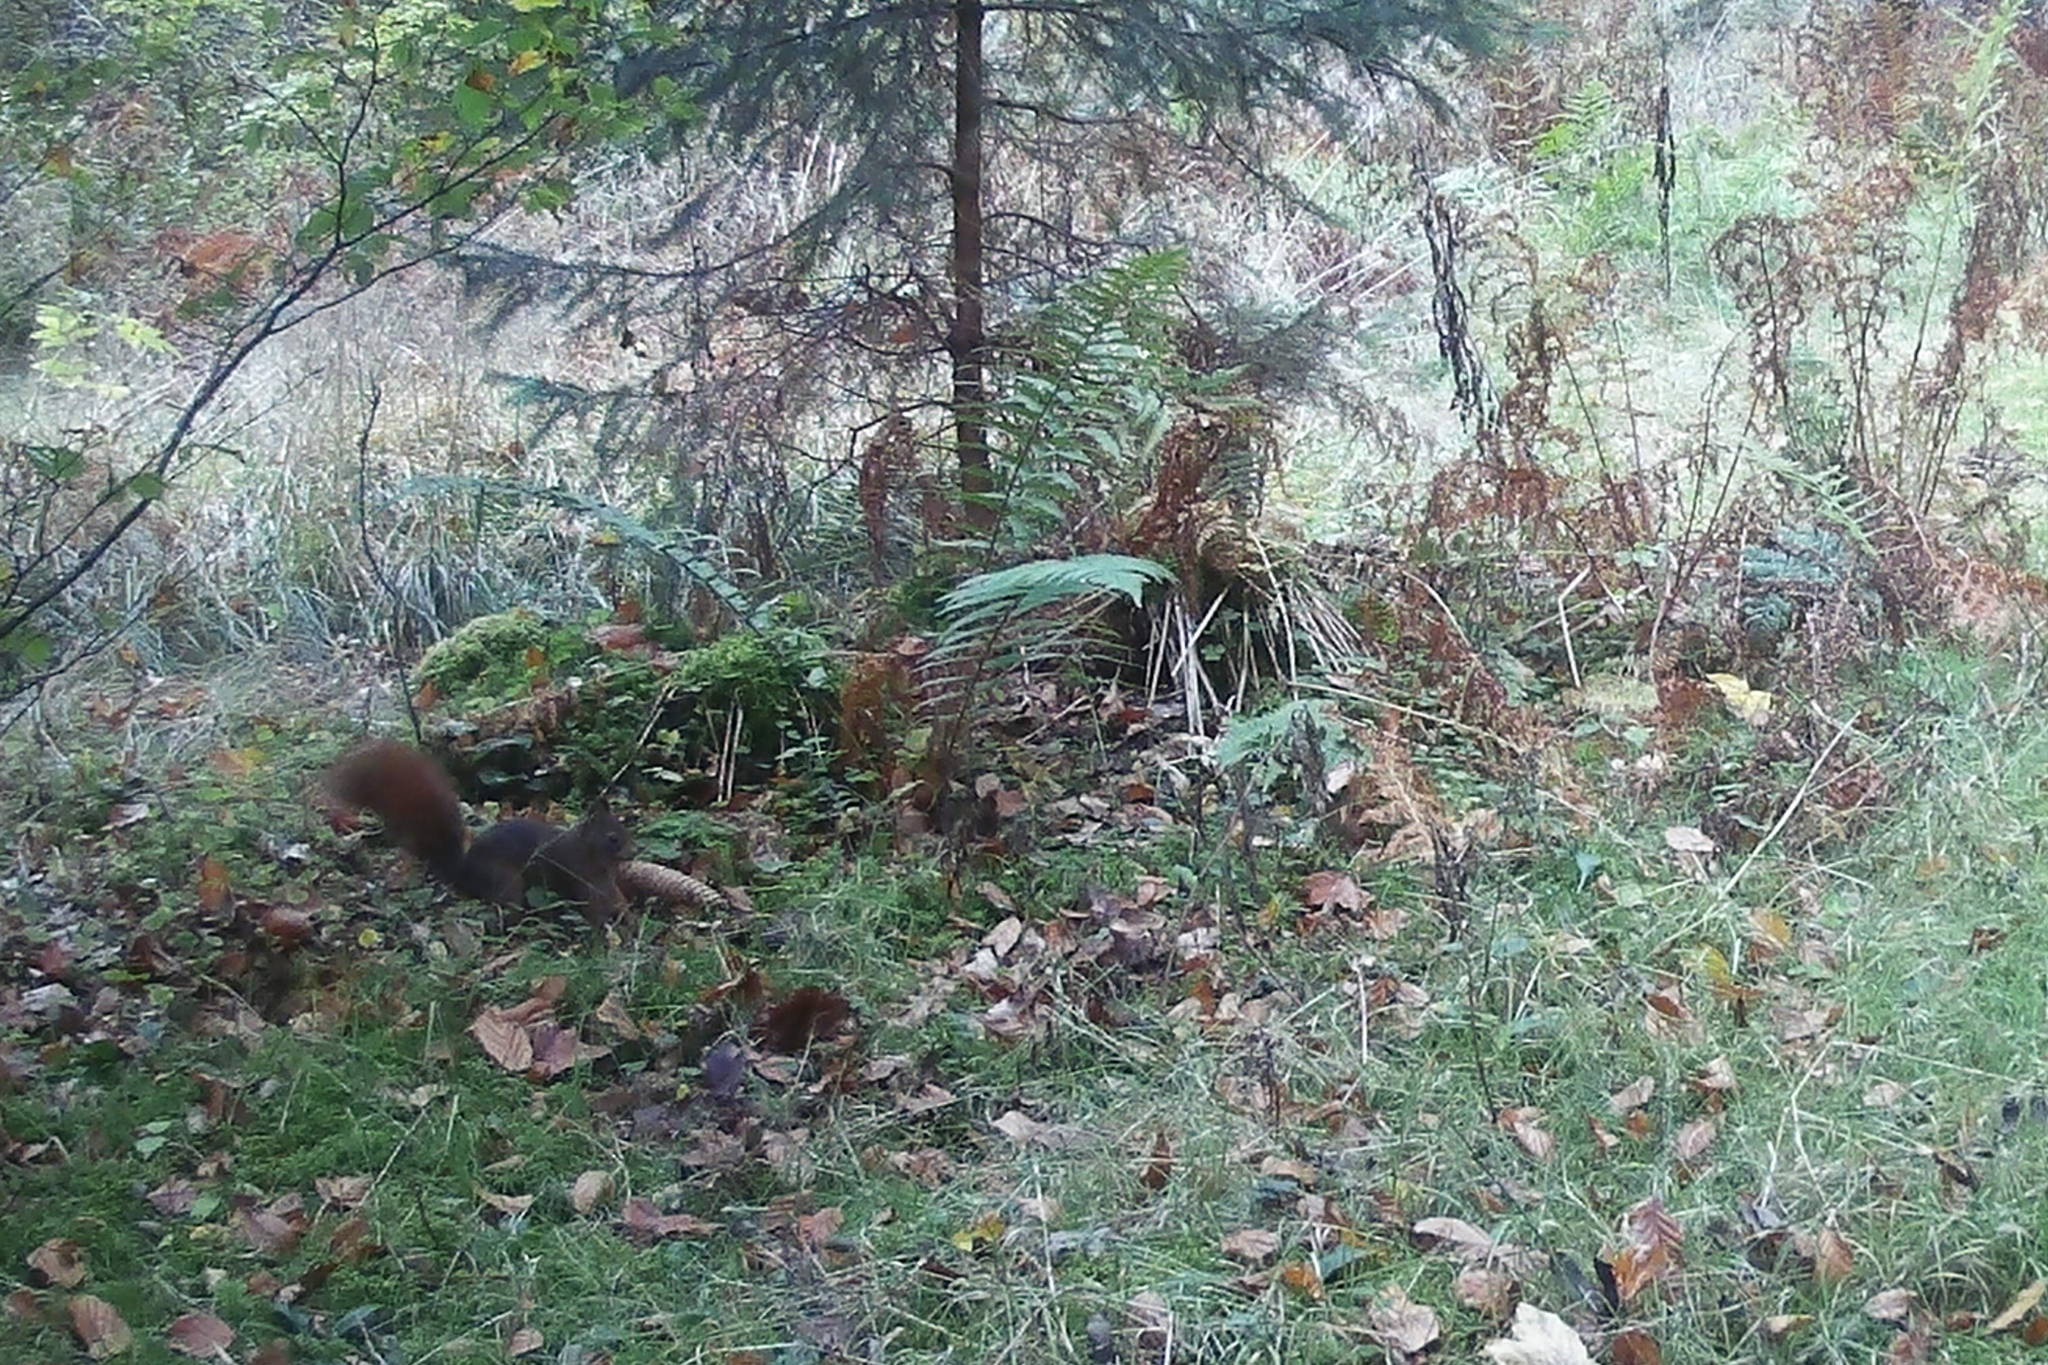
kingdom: Animalia
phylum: Chordata
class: Mammalia
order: Rodentia
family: Sciuridae
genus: Sciurus
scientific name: Sciurus vulgaris
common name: Eurasian red squirrel
